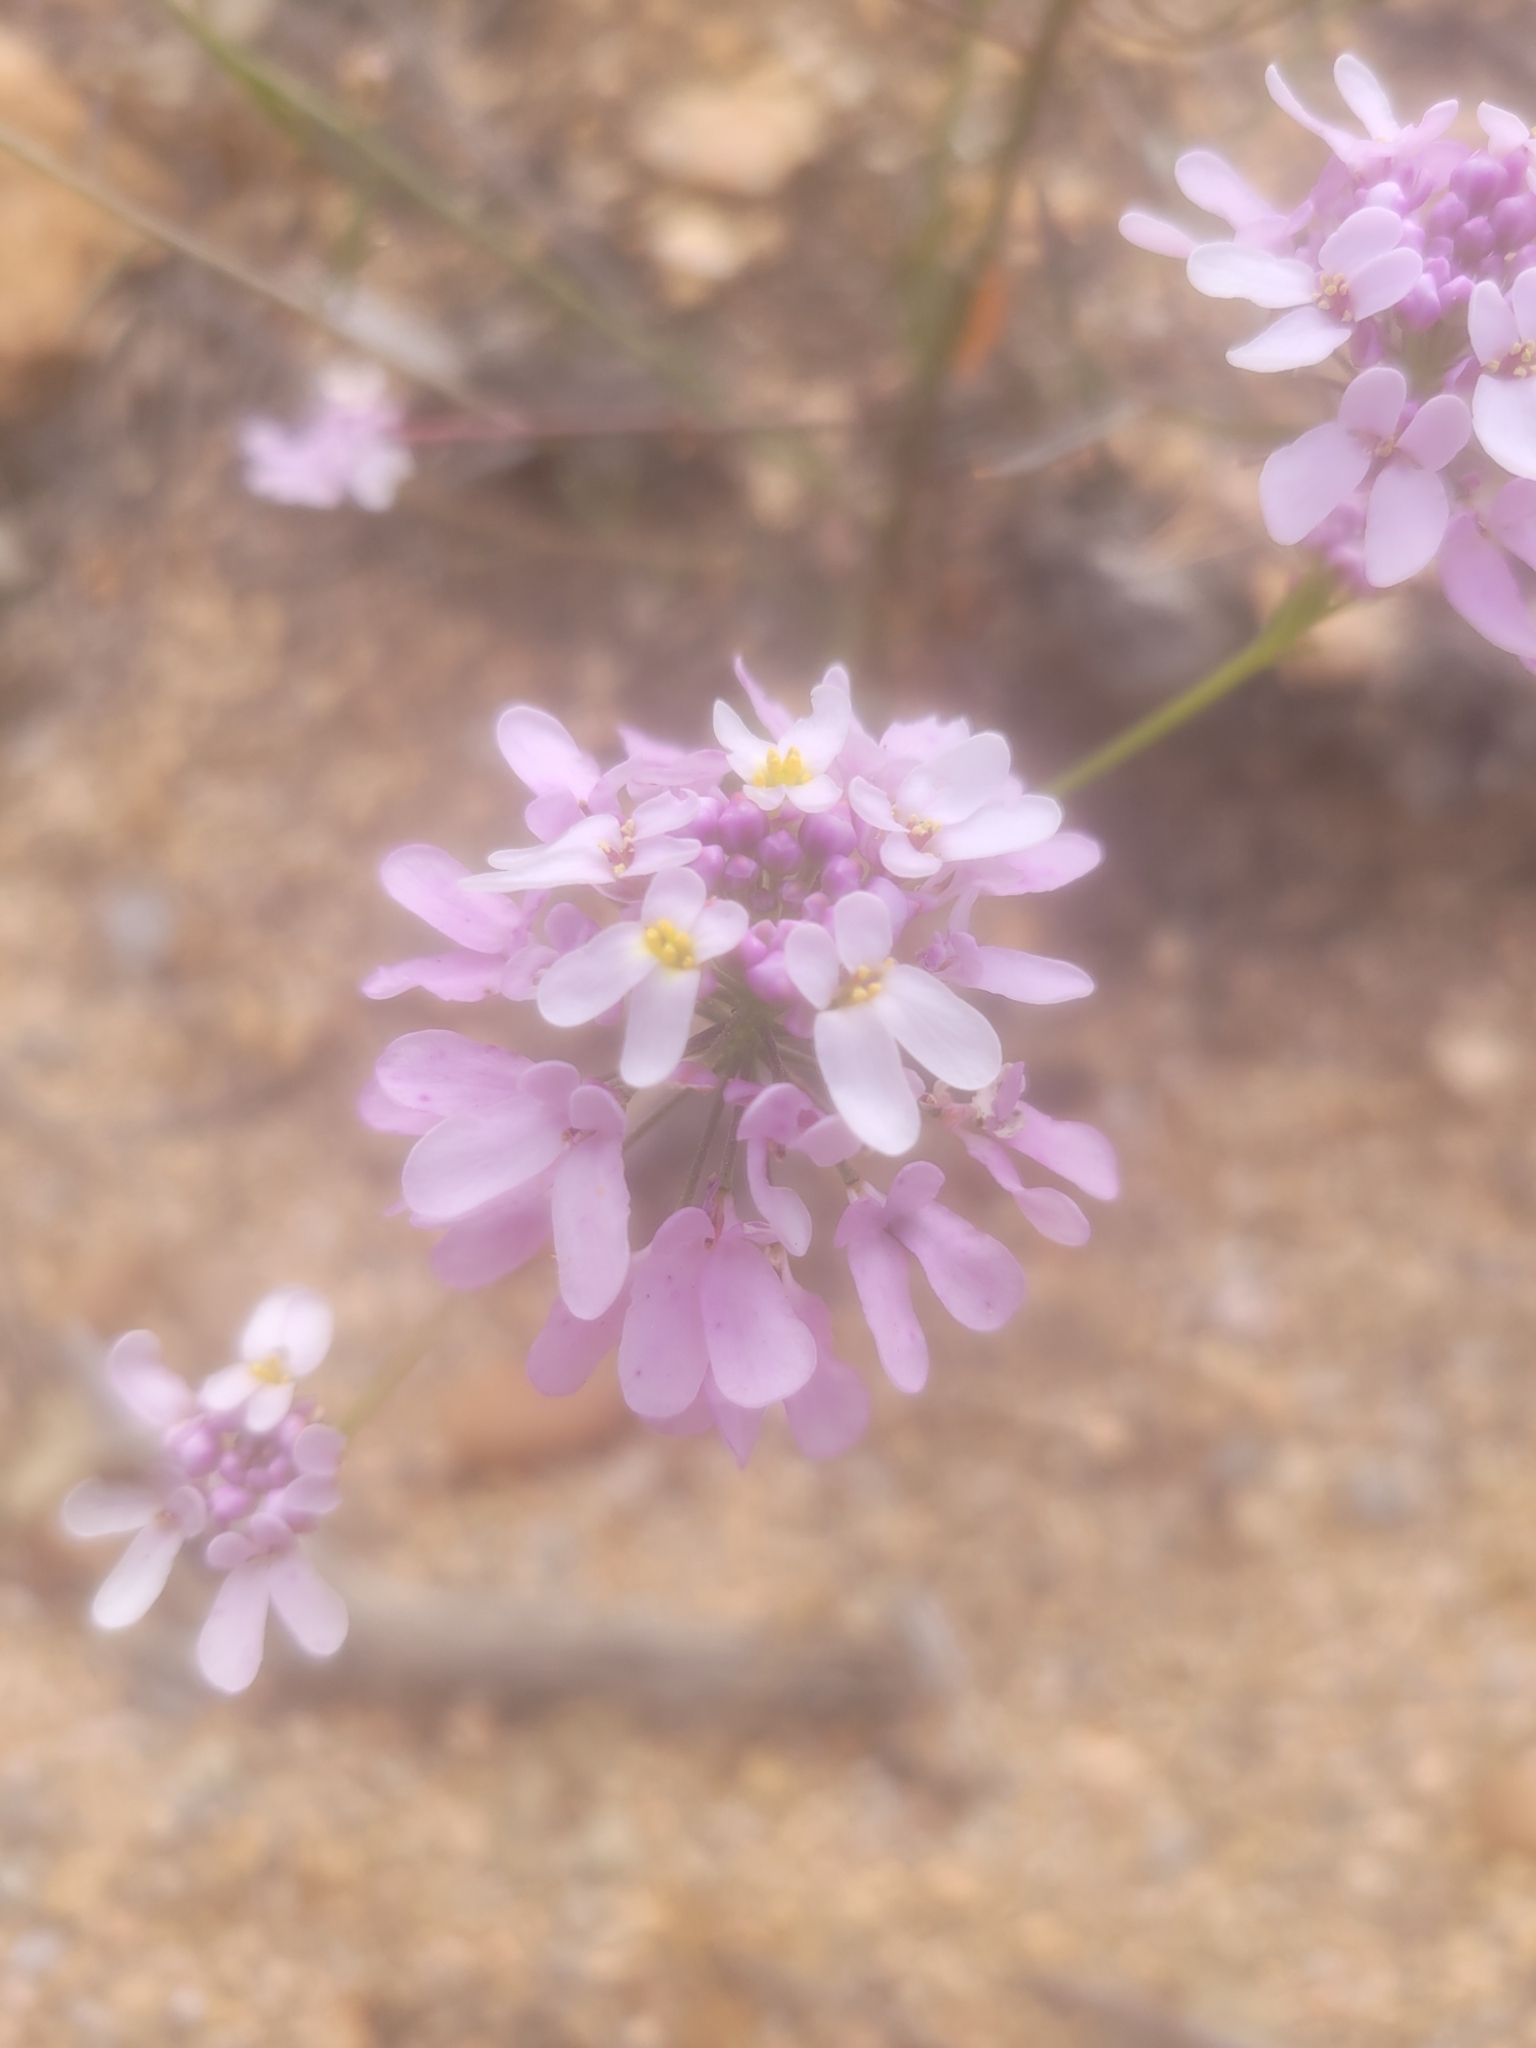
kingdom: Plantae
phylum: Tracheophyta
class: Magnoliopsida
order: Brassicales
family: Brassicaceae
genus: Iberis
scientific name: Iberis linifolia
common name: Candytuft
